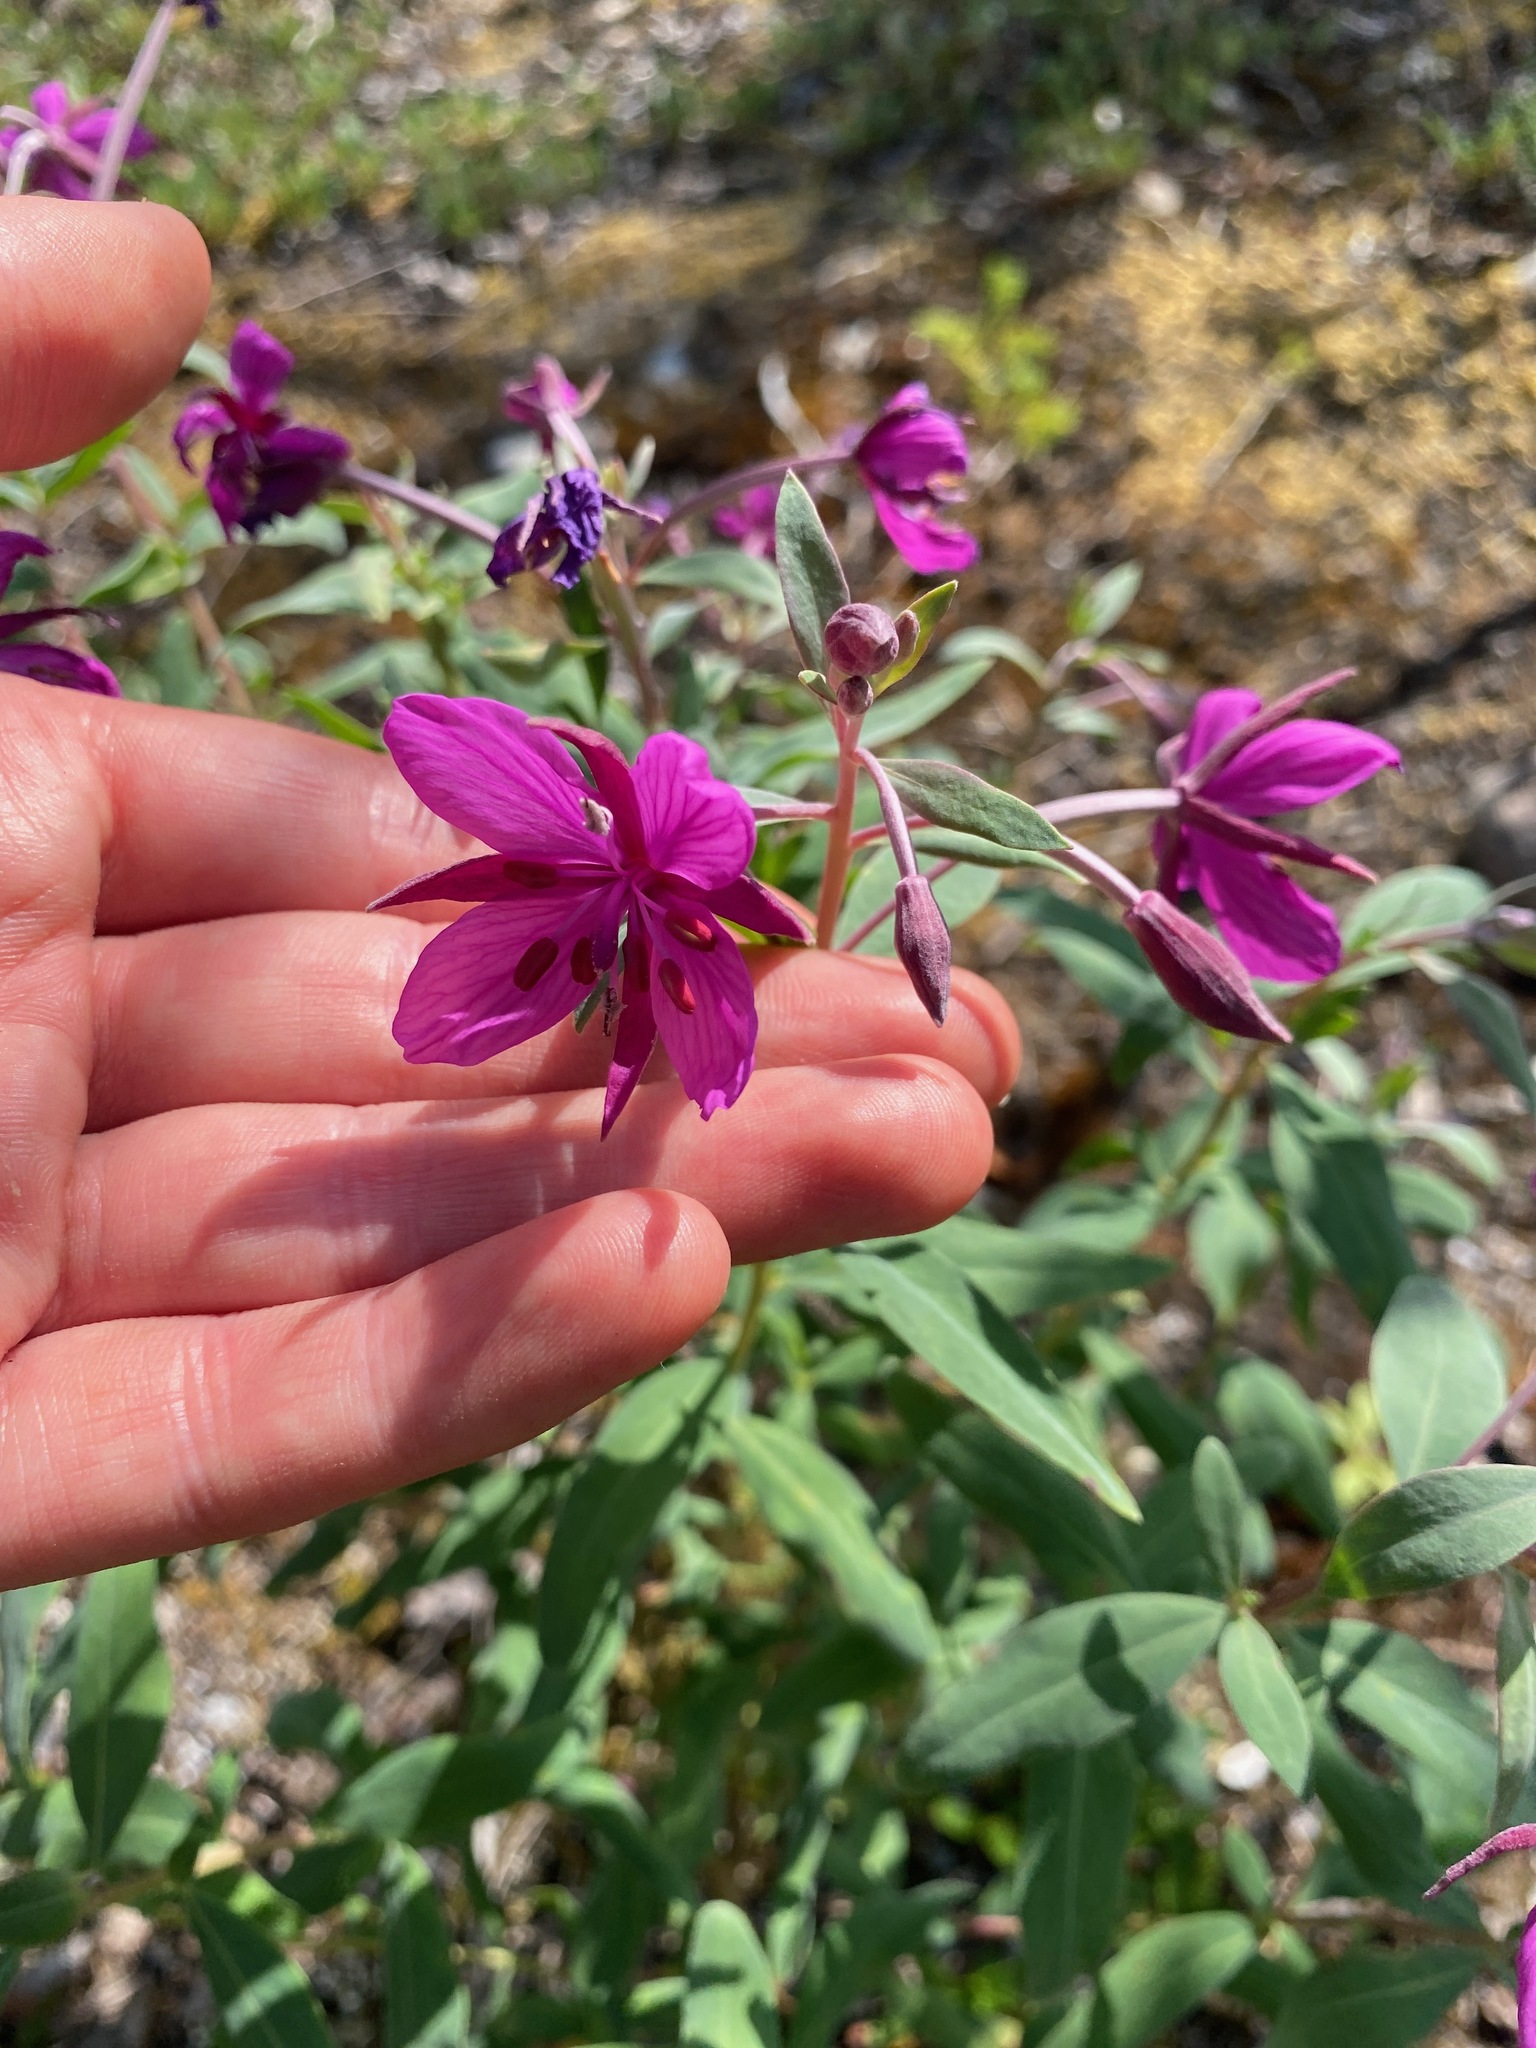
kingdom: Plantae
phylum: Tracheophyta
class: Magnoliopsida
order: Myrtales
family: Onagraceae
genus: Chamaenerion
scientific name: Chamaenerion latifolium
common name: Dwarf fireweed
